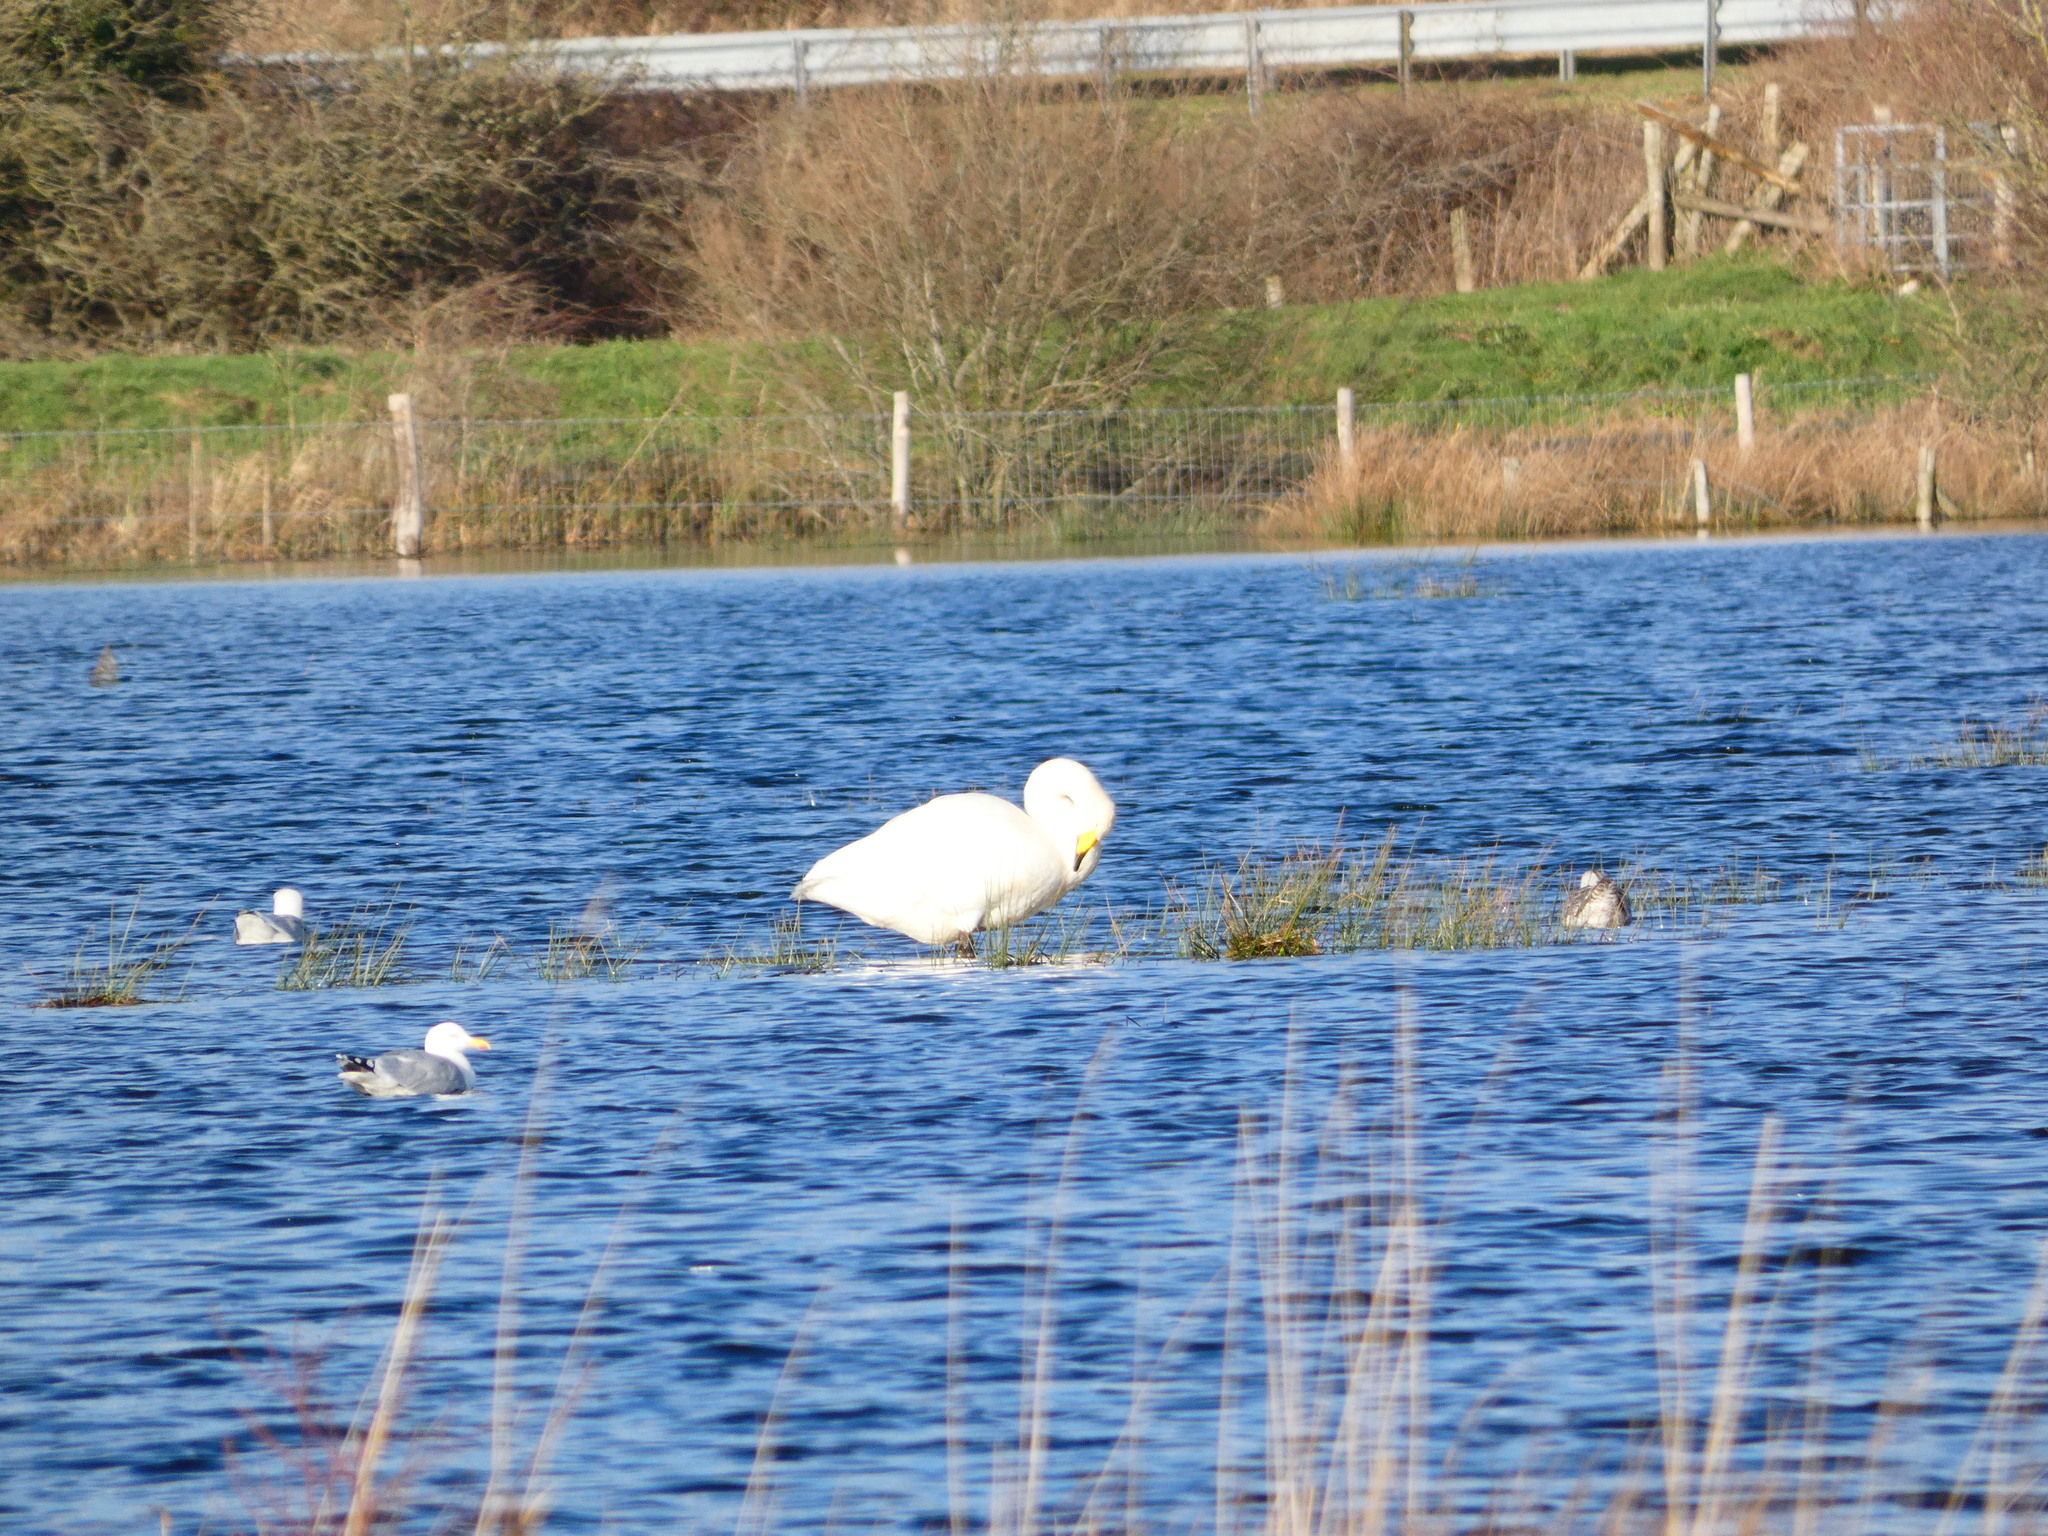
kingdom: Animalia
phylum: Chordata
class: Aves
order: Anseriformes
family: Anatidae
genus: Cygnus
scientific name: Cygnus cygnus
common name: Whooper swan
